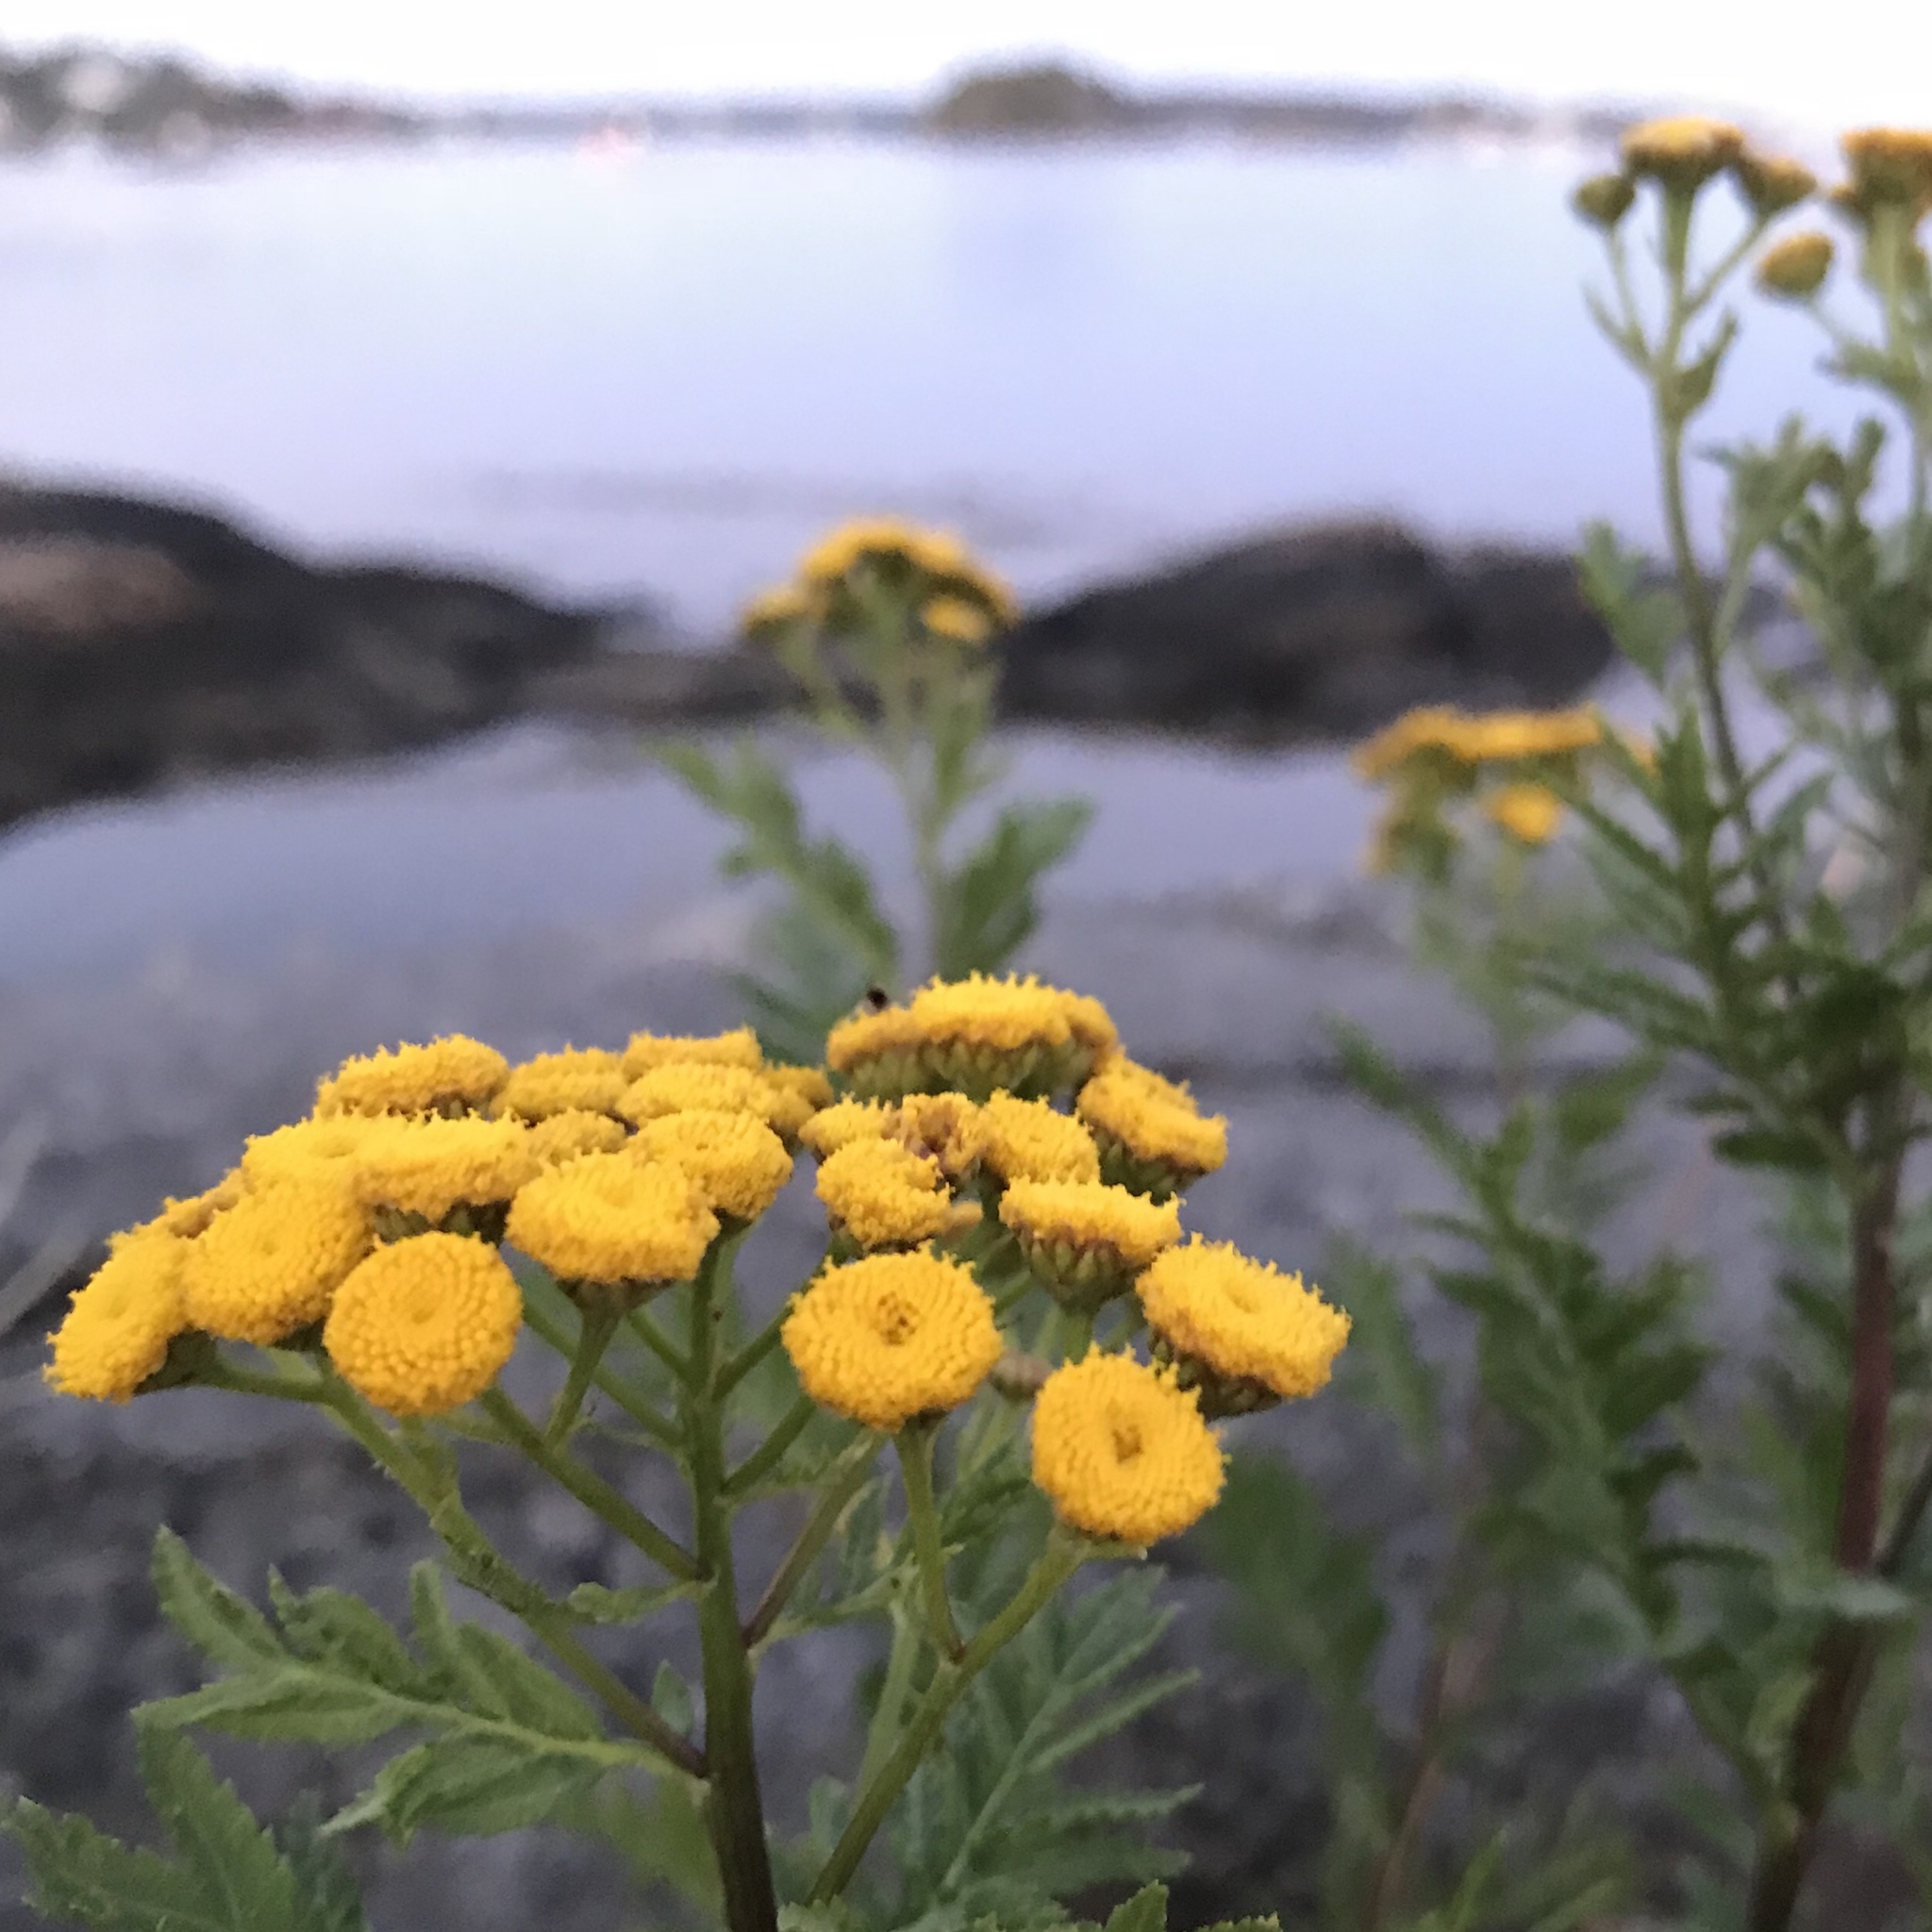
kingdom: Plantae
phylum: Tracheophyta
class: Magnoliopsida
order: Asterales
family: Asteraceae
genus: Tanacetum
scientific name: Tanacetum vulgare
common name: Common tansy
